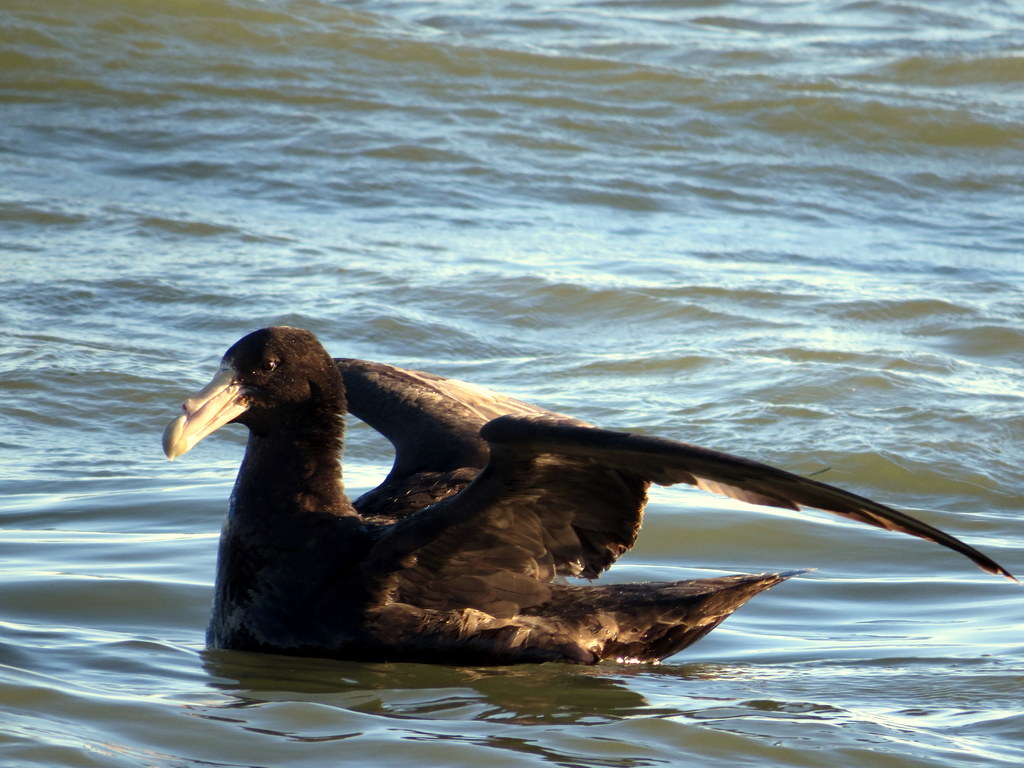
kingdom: Animalia
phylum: Chordata
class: Aves
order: Procellariiformes
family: Procellariidae
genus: Macronectes
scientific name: Macronectes giganteus
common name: Southern giant petrel
